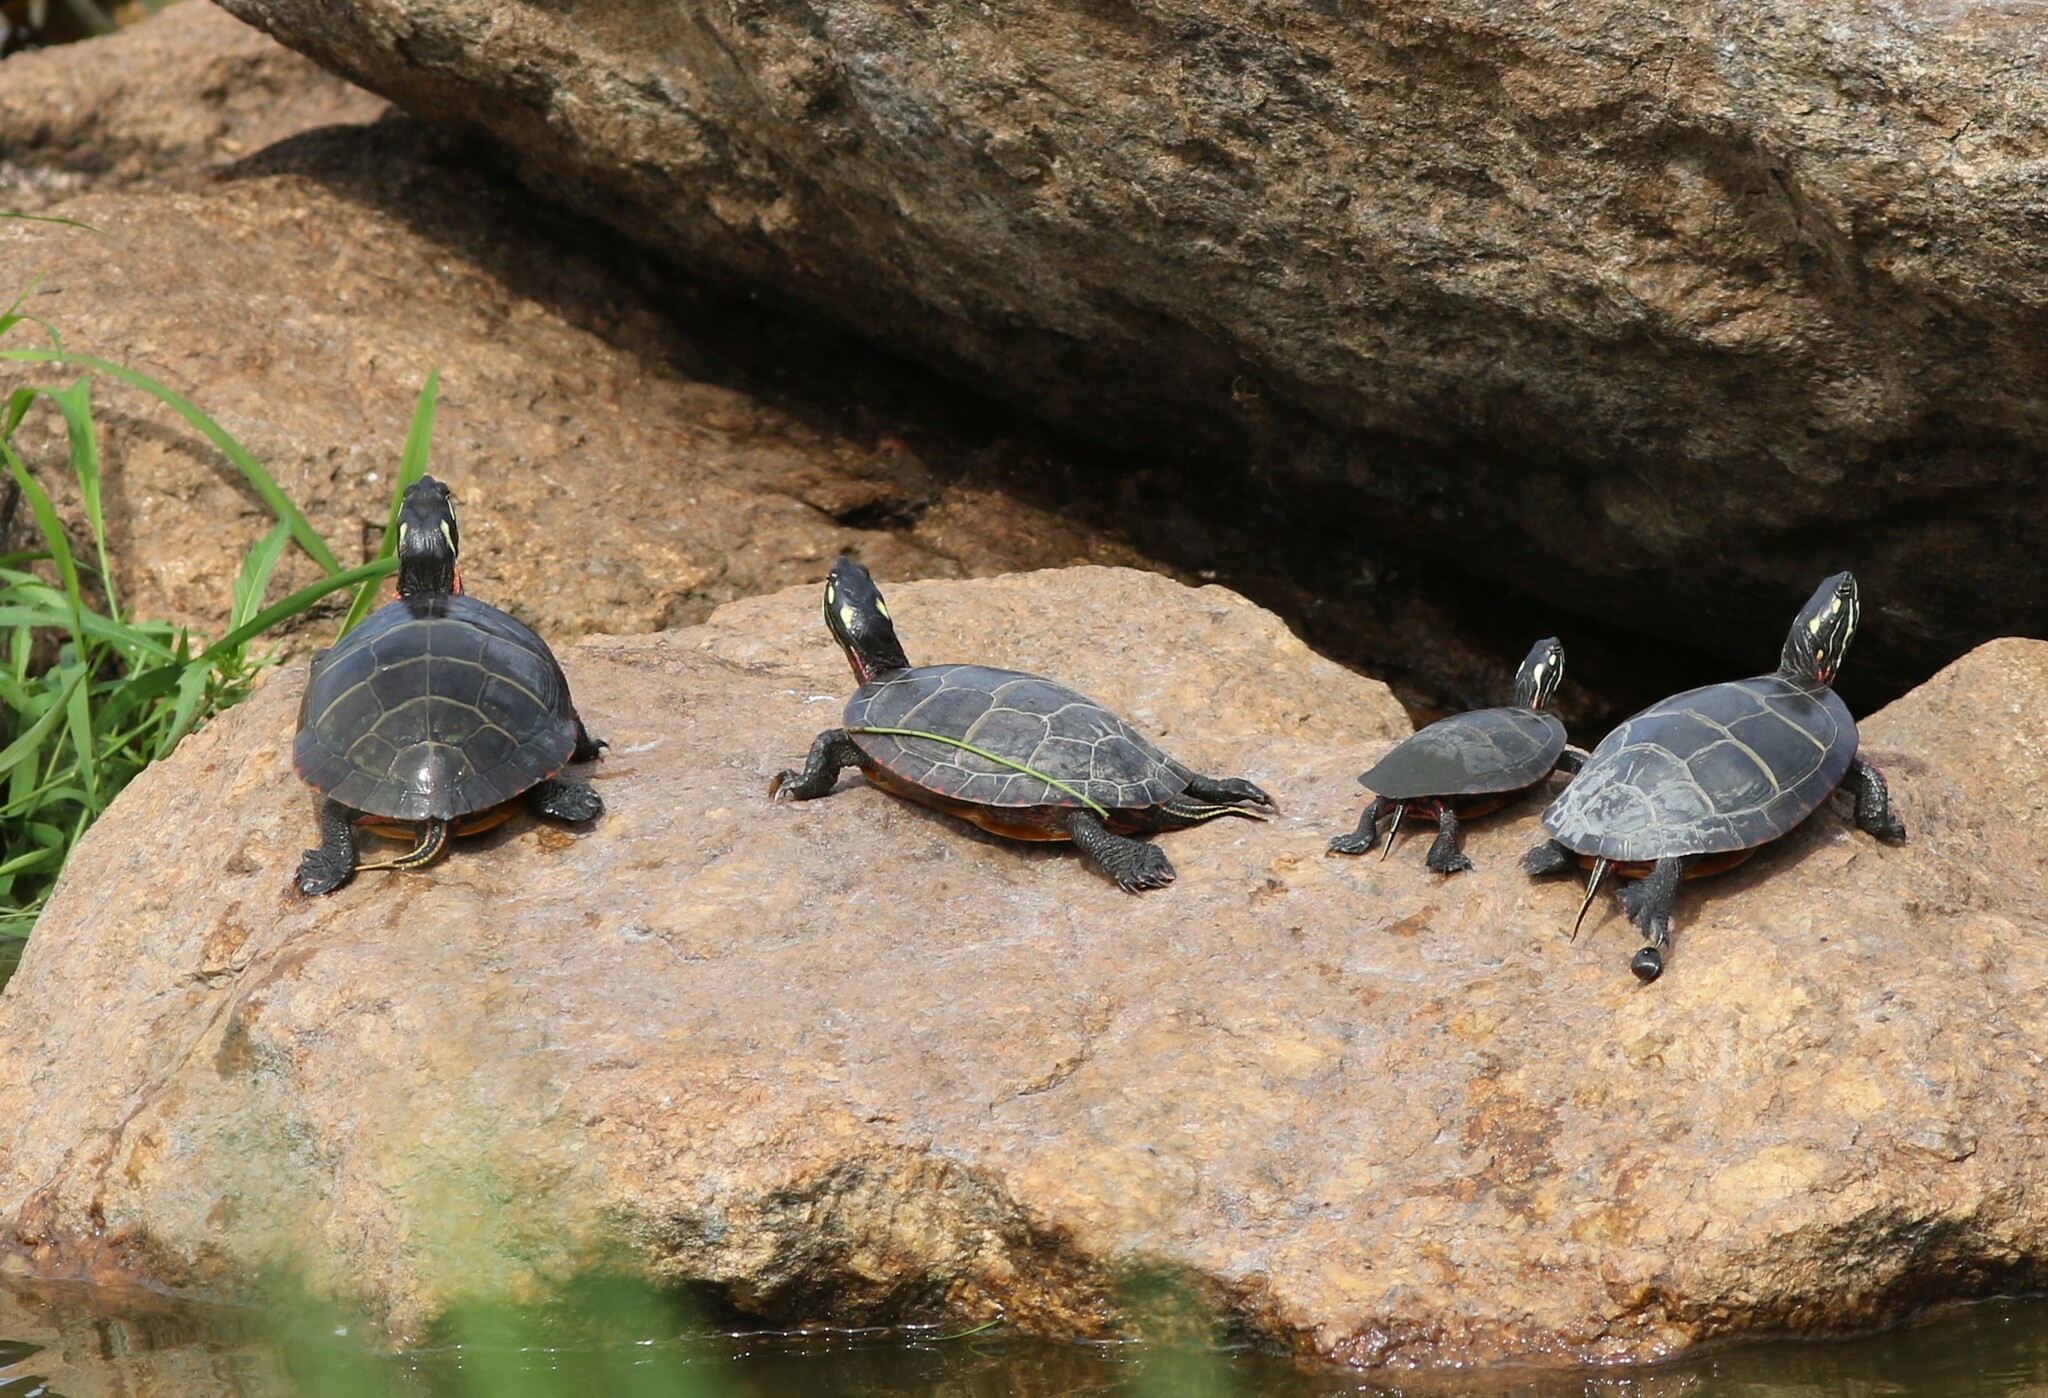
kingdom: Animalia
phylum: Chordata
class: Testudines
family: Emydidae
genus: Chrysemys
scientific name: Chrysemys picta
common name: Painted turtle
